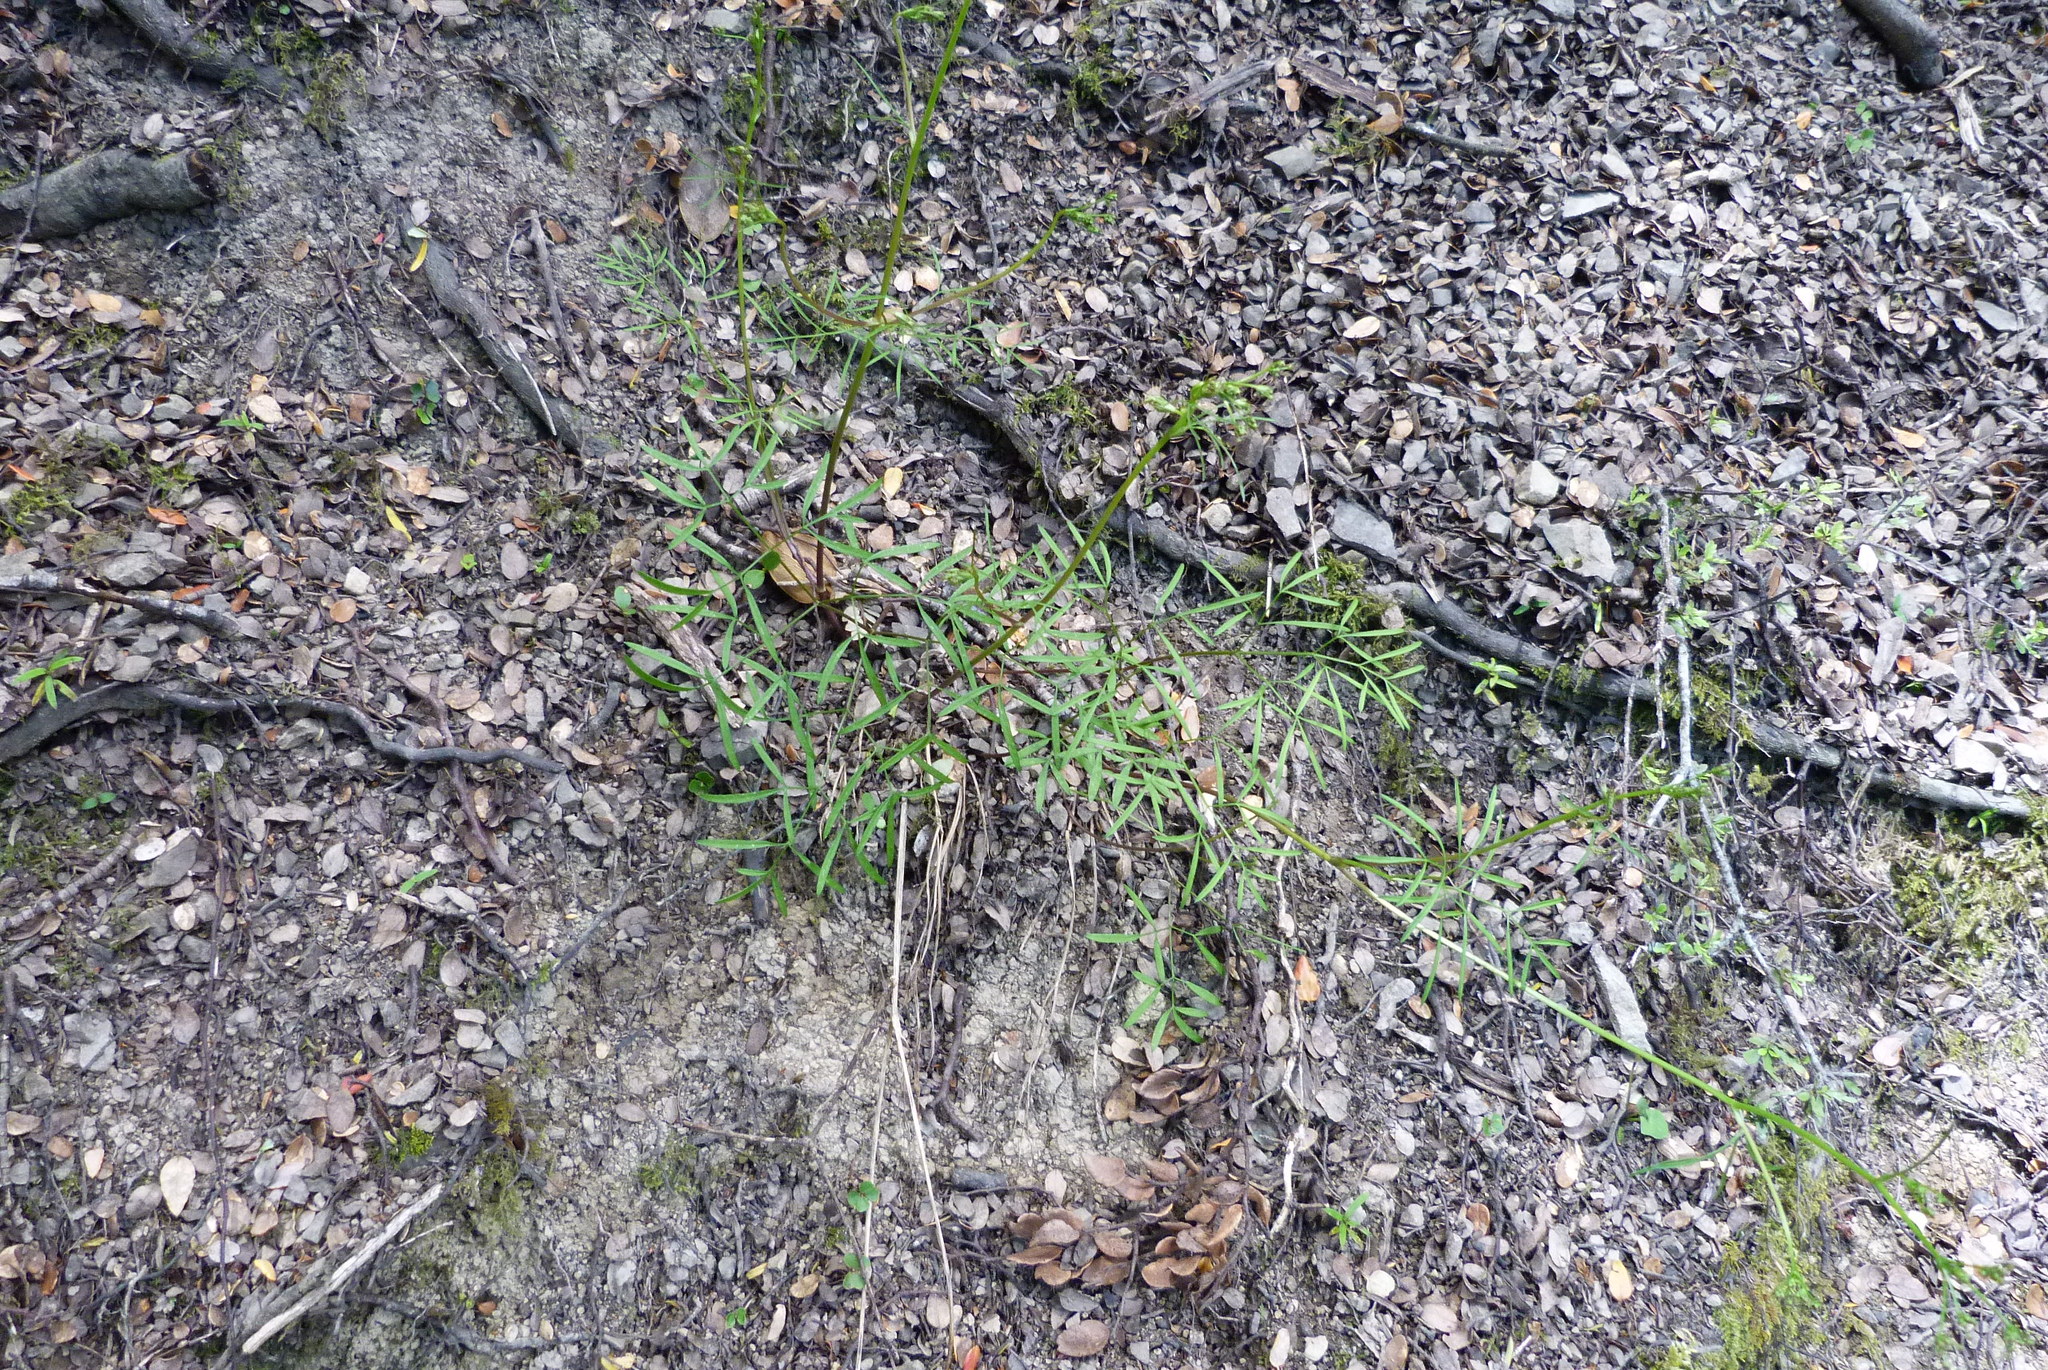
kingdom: Plantae
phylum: Tracheophyta
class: Magnoliopsida
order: Apiales
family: Apiaceae
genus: Anisotome
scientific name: Anisotome filifolia
